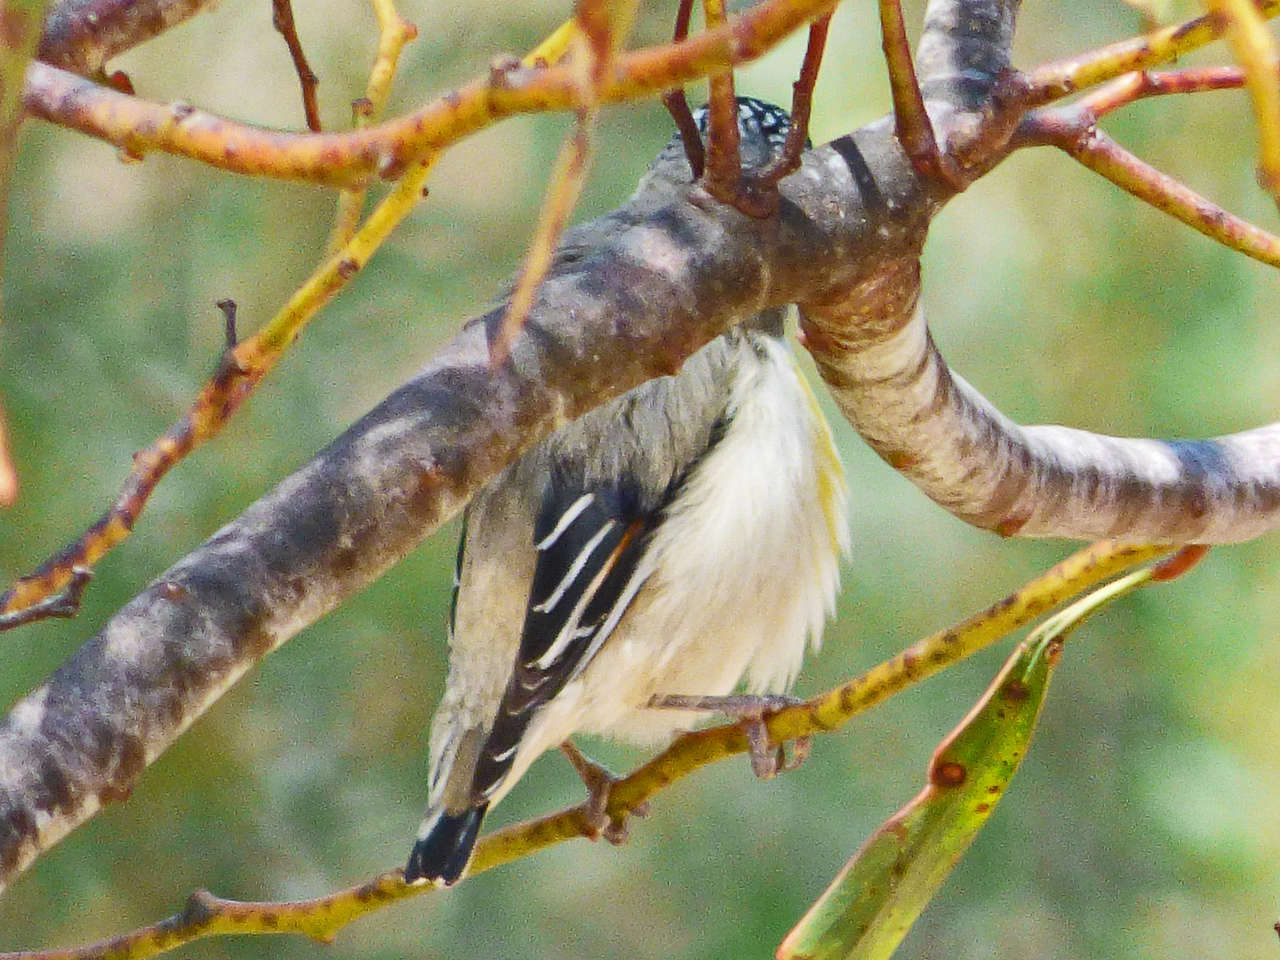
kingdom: Animalia
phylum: Chordata
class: Aves
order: Passeriformes
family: Pardalotidae
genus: Pardalotus
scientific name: Pardalotus striatus
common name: Striated pardalote
